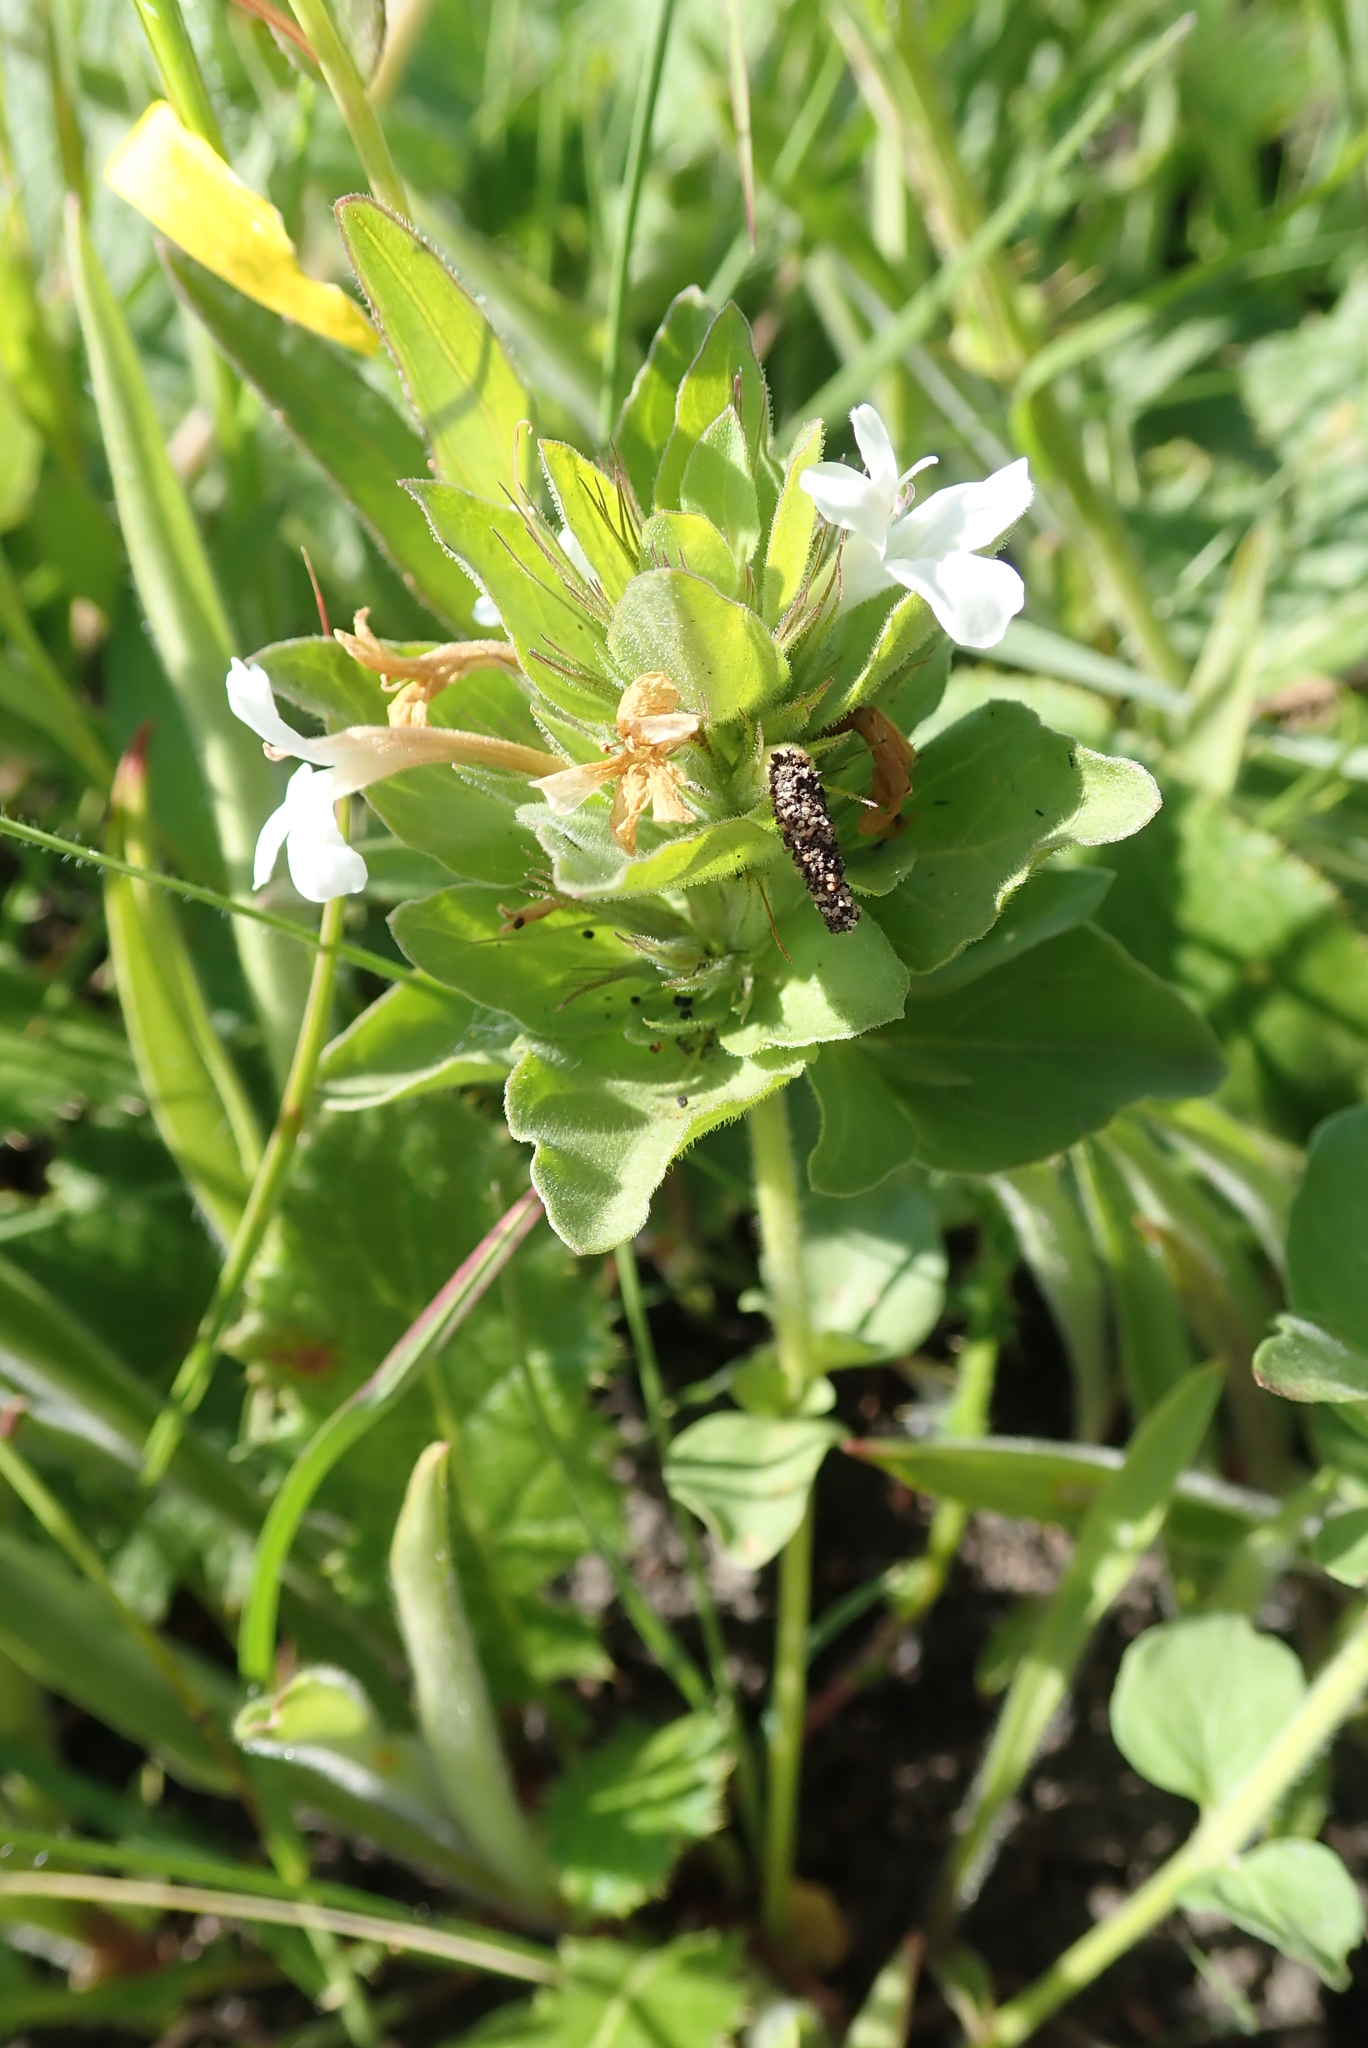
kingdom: Plantae
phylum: Tracheophyta
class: Magnoliopsida
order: Lamiales
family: Acanthaceae
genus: Dyschoriste
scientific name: Dyschoriste radicans
